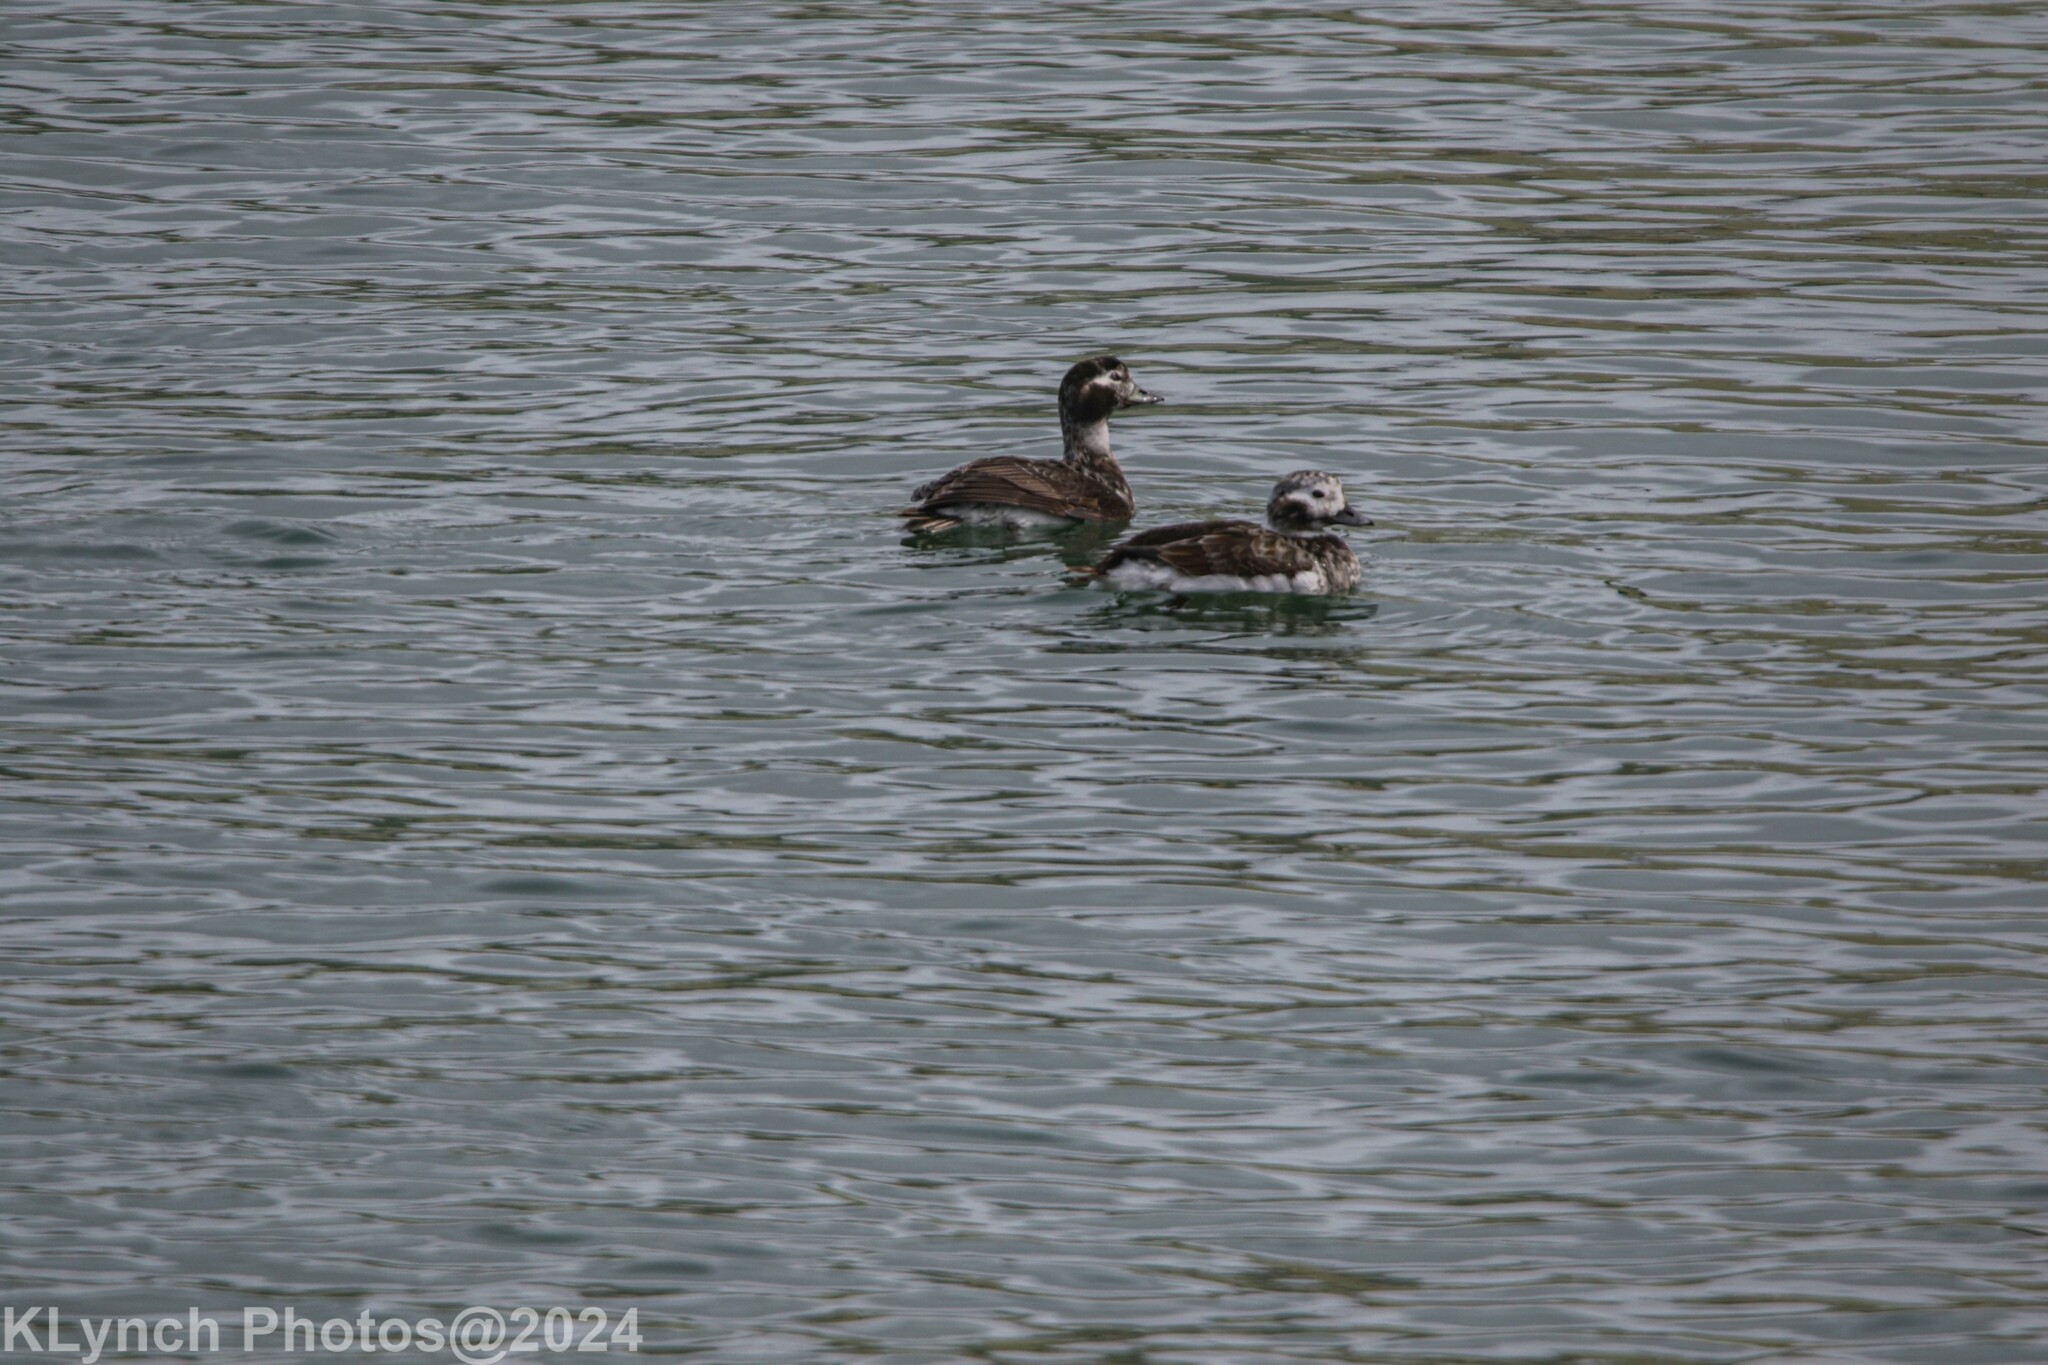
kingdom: Animalia
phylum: Chordata
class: Aves
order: Anseriformes
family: Anatidae
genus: Clangula
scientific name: Clangula hyemalis
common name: Long-tailed duck
